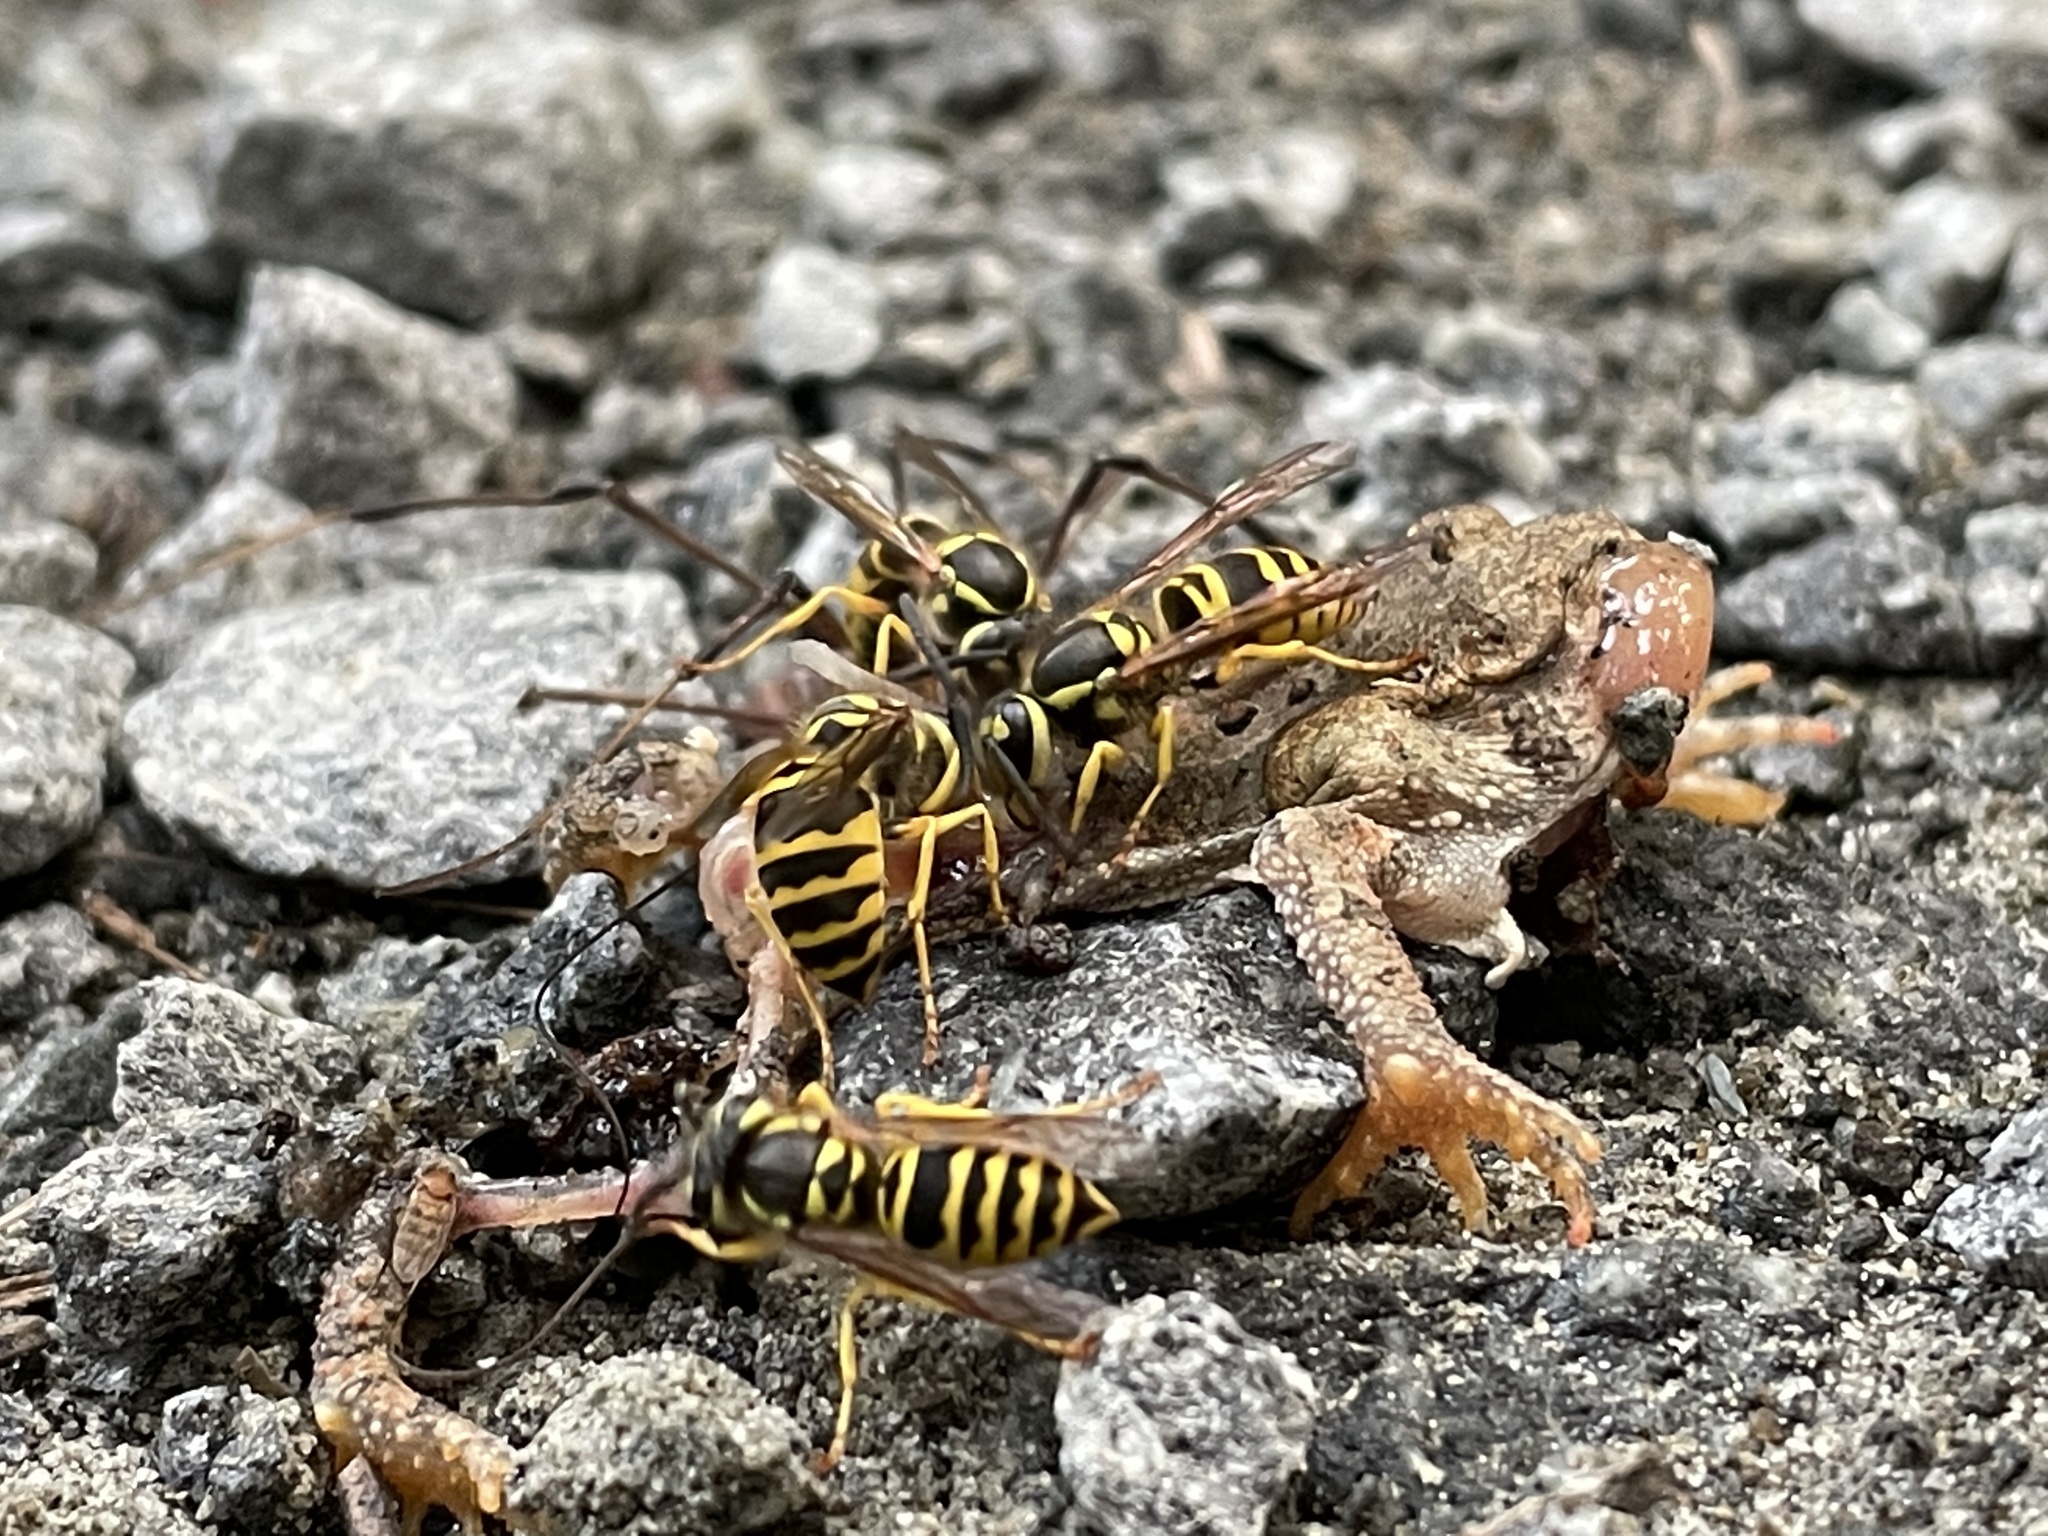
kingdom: Animalia
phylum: Arthropoda
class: Insecta
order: Hymenoptera
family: Vespidae
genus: Vespula
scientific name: Vespula maculifrons
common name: Eastern yellowjacket
